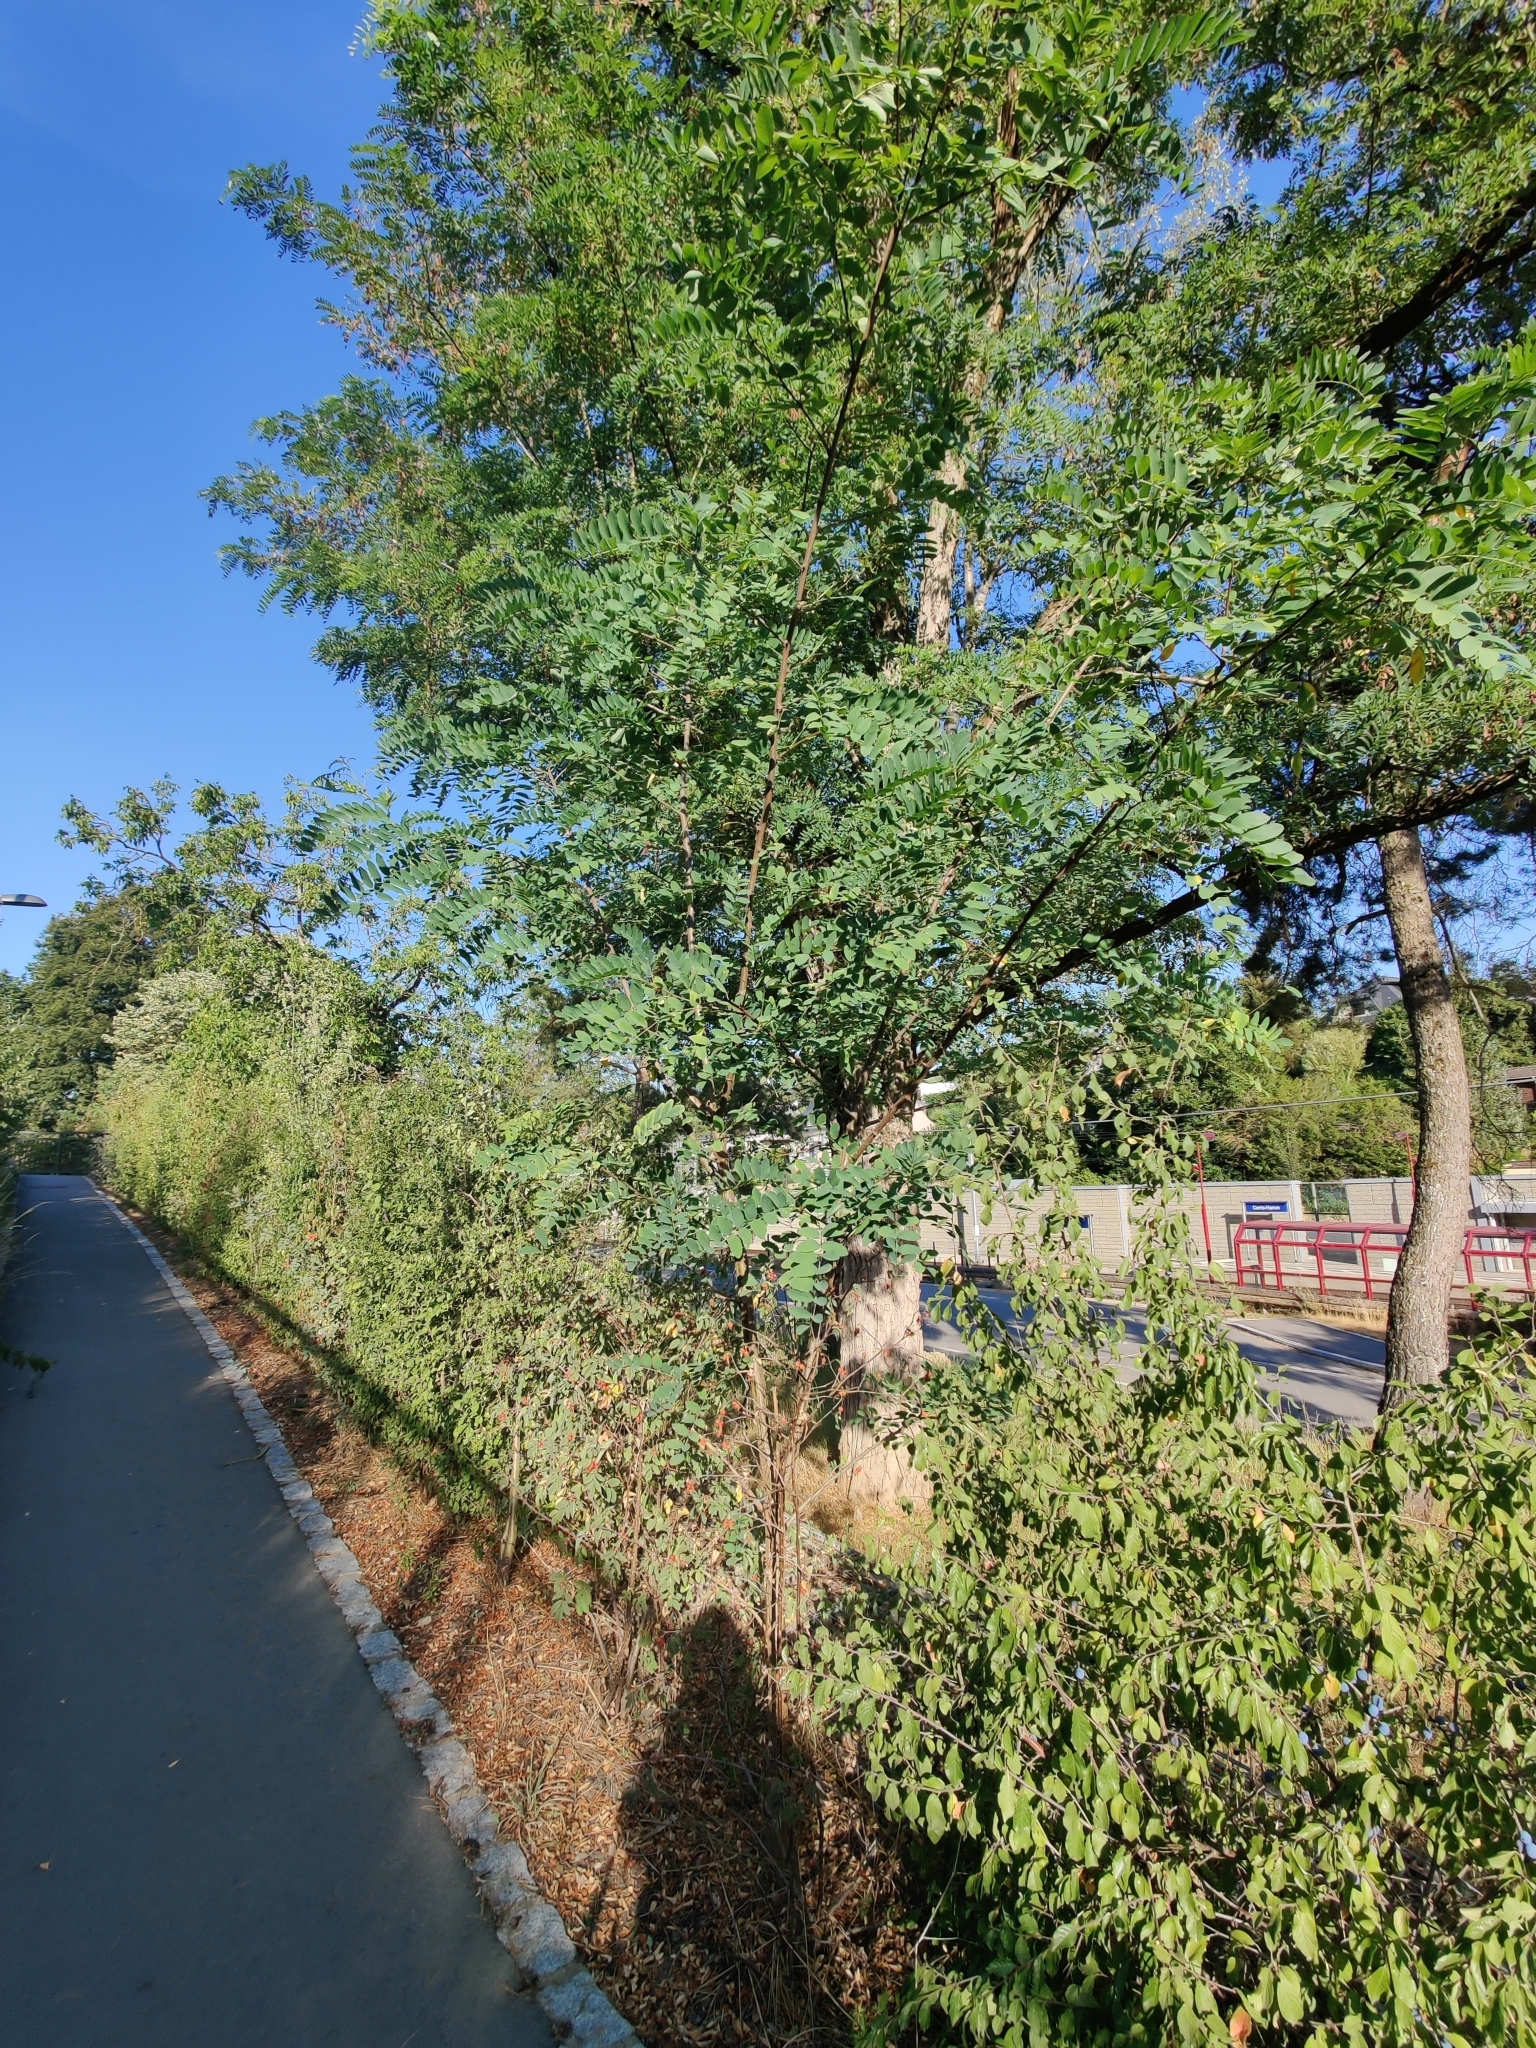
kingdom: Plantae
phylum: Tracheophyta
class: Magnoliopsida
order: Fabales
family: Fabaceae
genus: Robinia
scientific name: Robinia pseudoacacia
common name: Black locust
